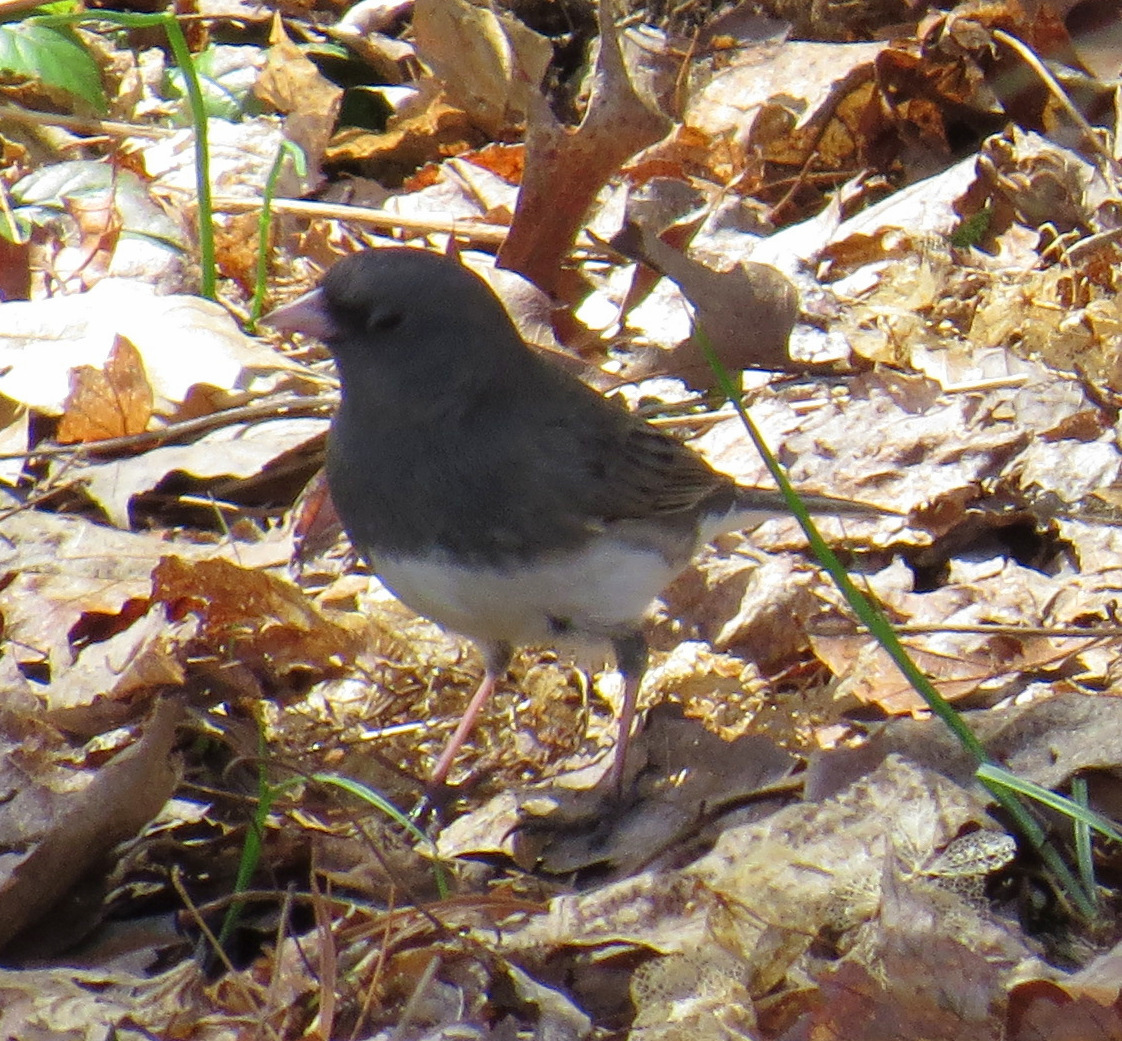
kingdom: Animalia
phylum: Chordata
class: Aves
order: Passeriformes
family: Passerellidae
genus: Junco
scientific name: Junco hyemalis
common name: Dark-eyed junco
